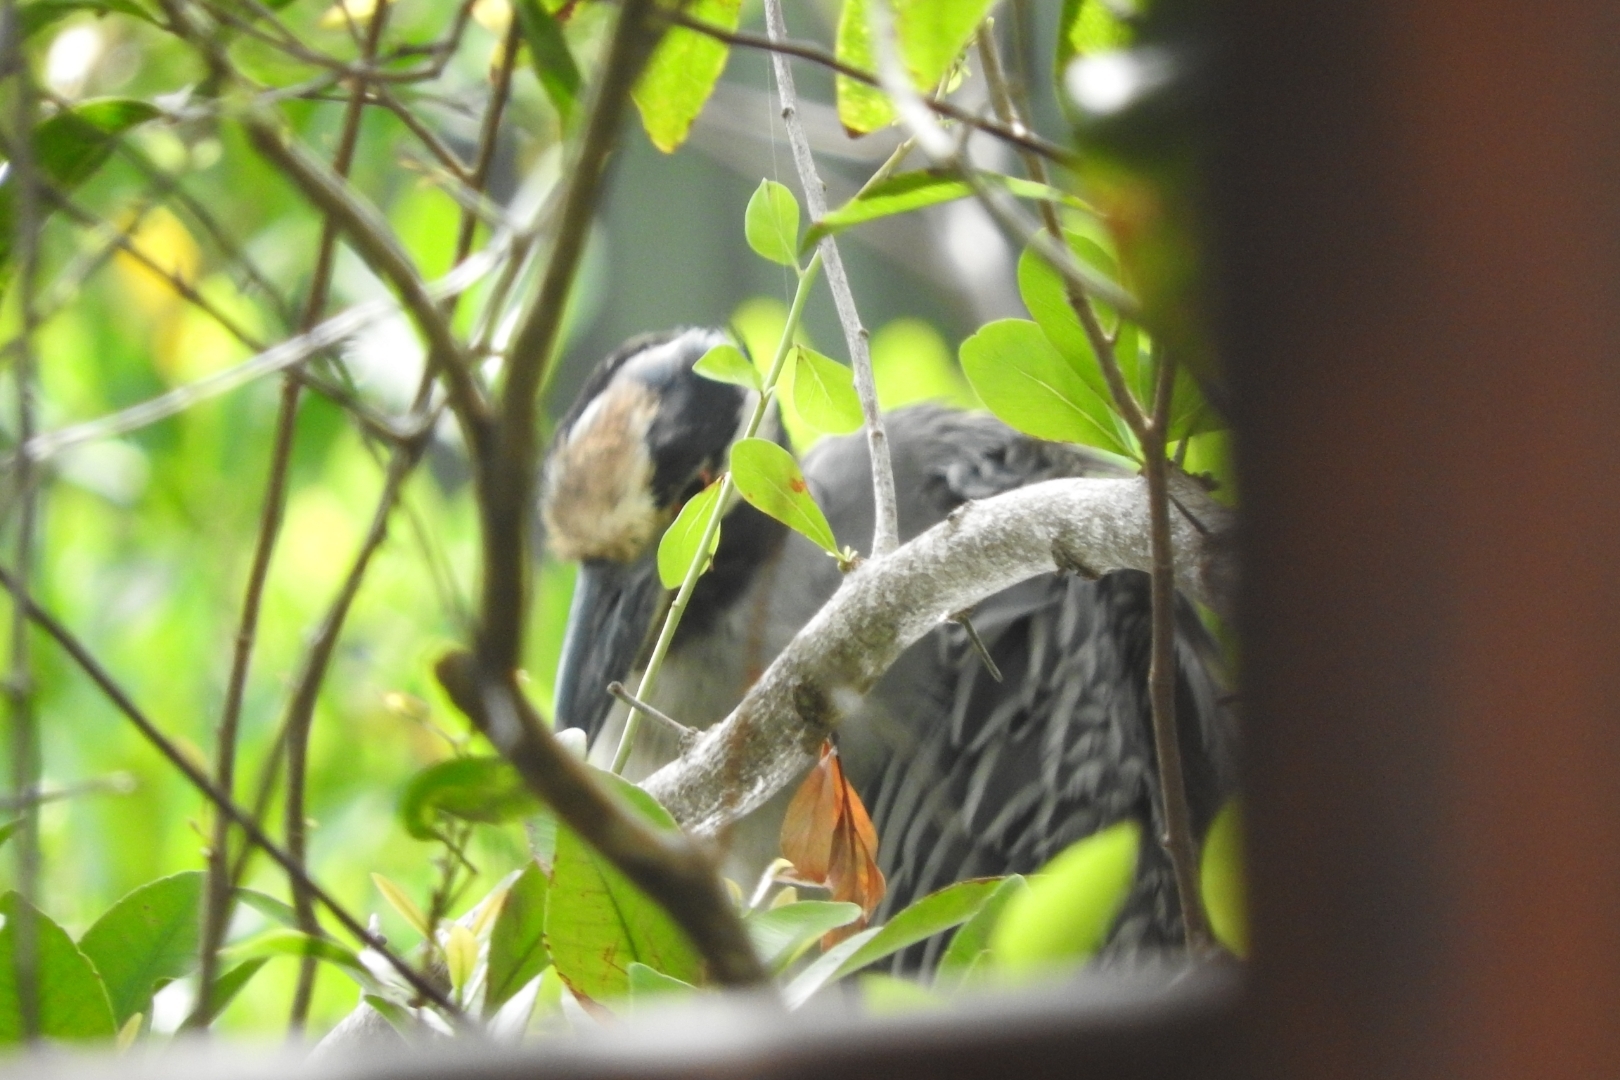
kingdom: Animalia
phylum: Chordata
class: Aves
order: Pelecaniformes
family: Ardeidae
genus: Nyctanassa
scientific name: Nyctanassa violacea
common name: Yellow-crowned night heron
